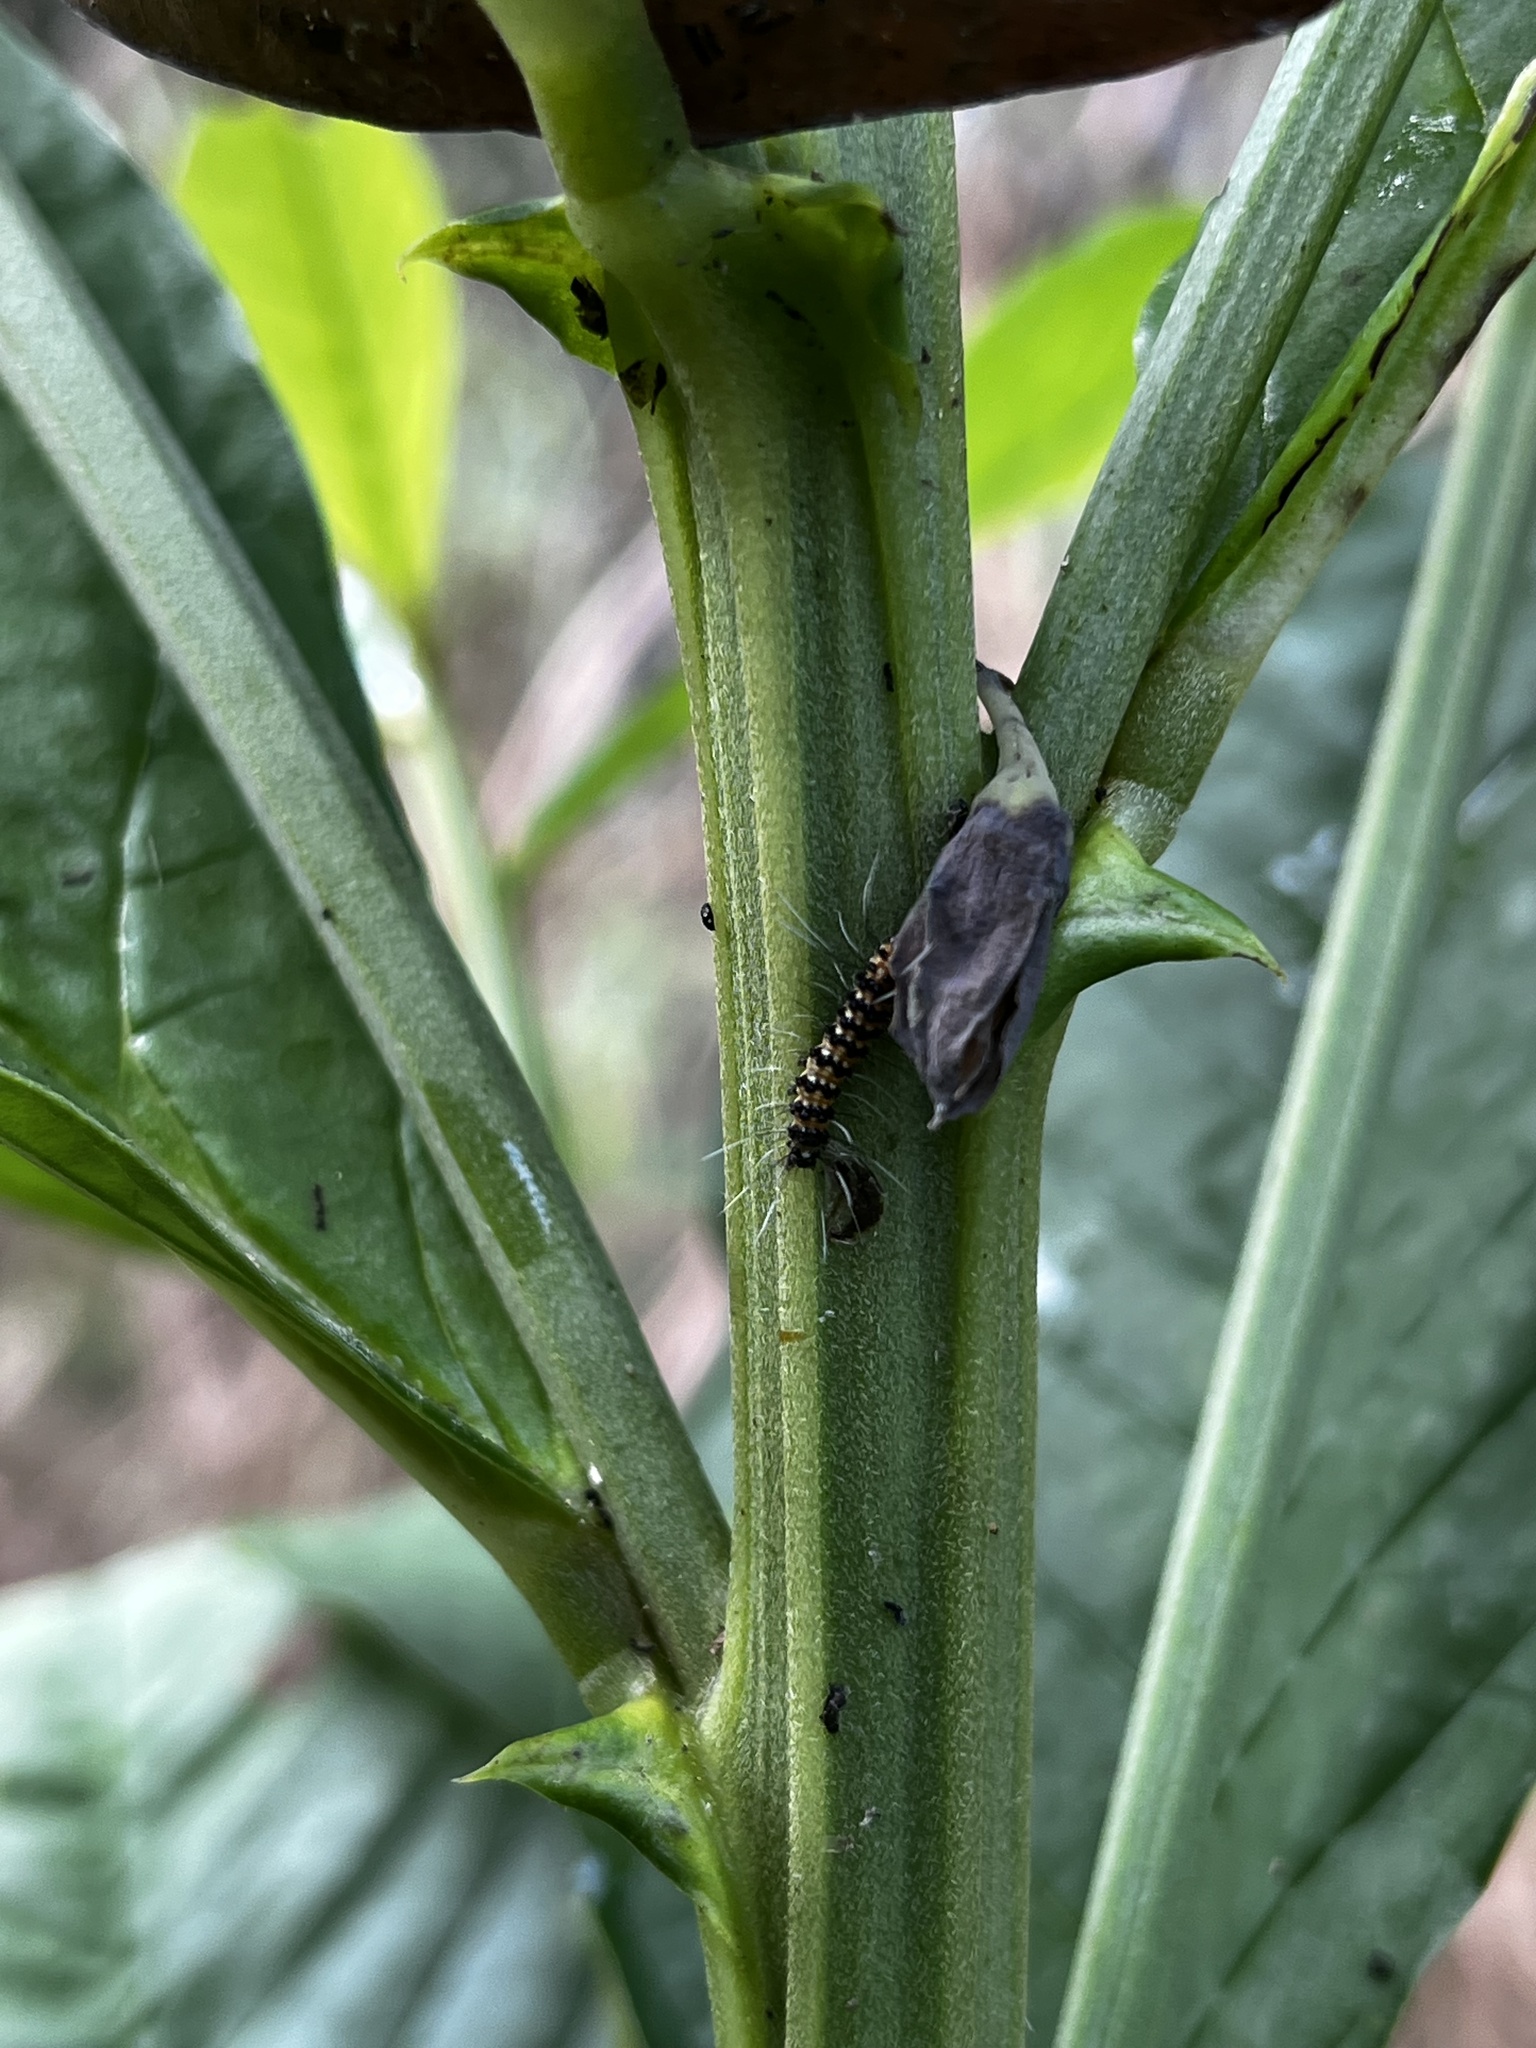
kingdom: Animalia
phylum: Arthropoda
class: Insecta
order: Lepidoptera
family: Erebidae
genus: Utetheisa
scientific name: Utetheisa ornatrix
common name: Beautiful utetheisa
